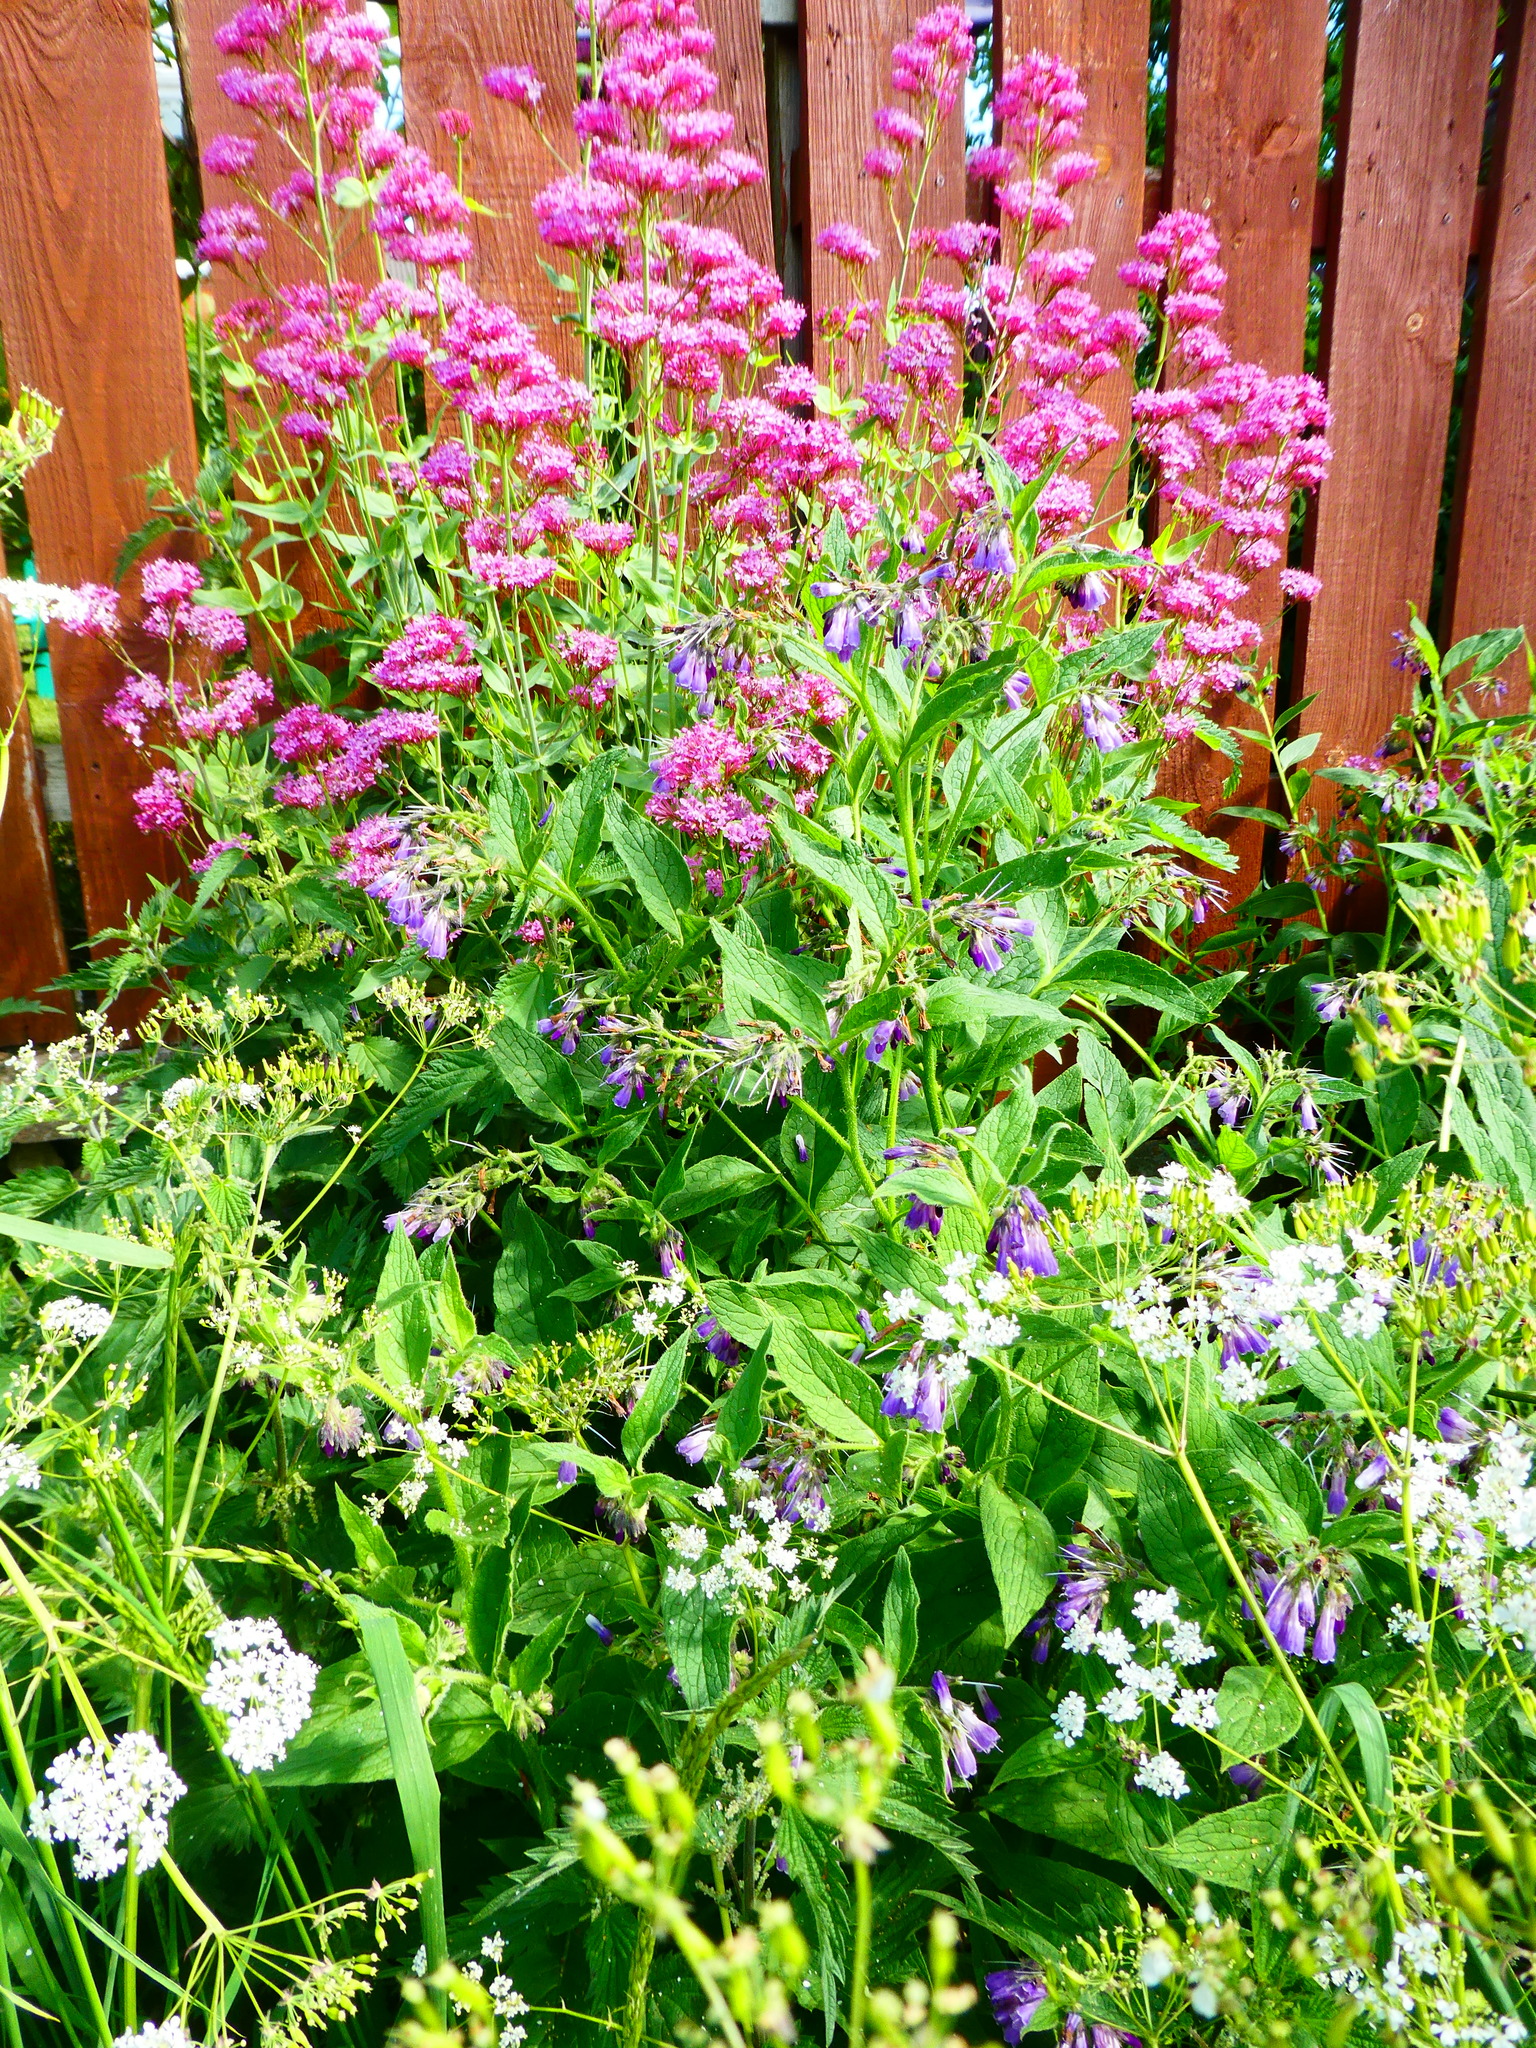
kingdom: Plantae
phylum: Tracheophyta
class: Magnoliopsida
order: Dipsacales
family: Caprifoliaceae
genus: Centranthus
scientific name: Centranthus ruber
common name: Red valerian
